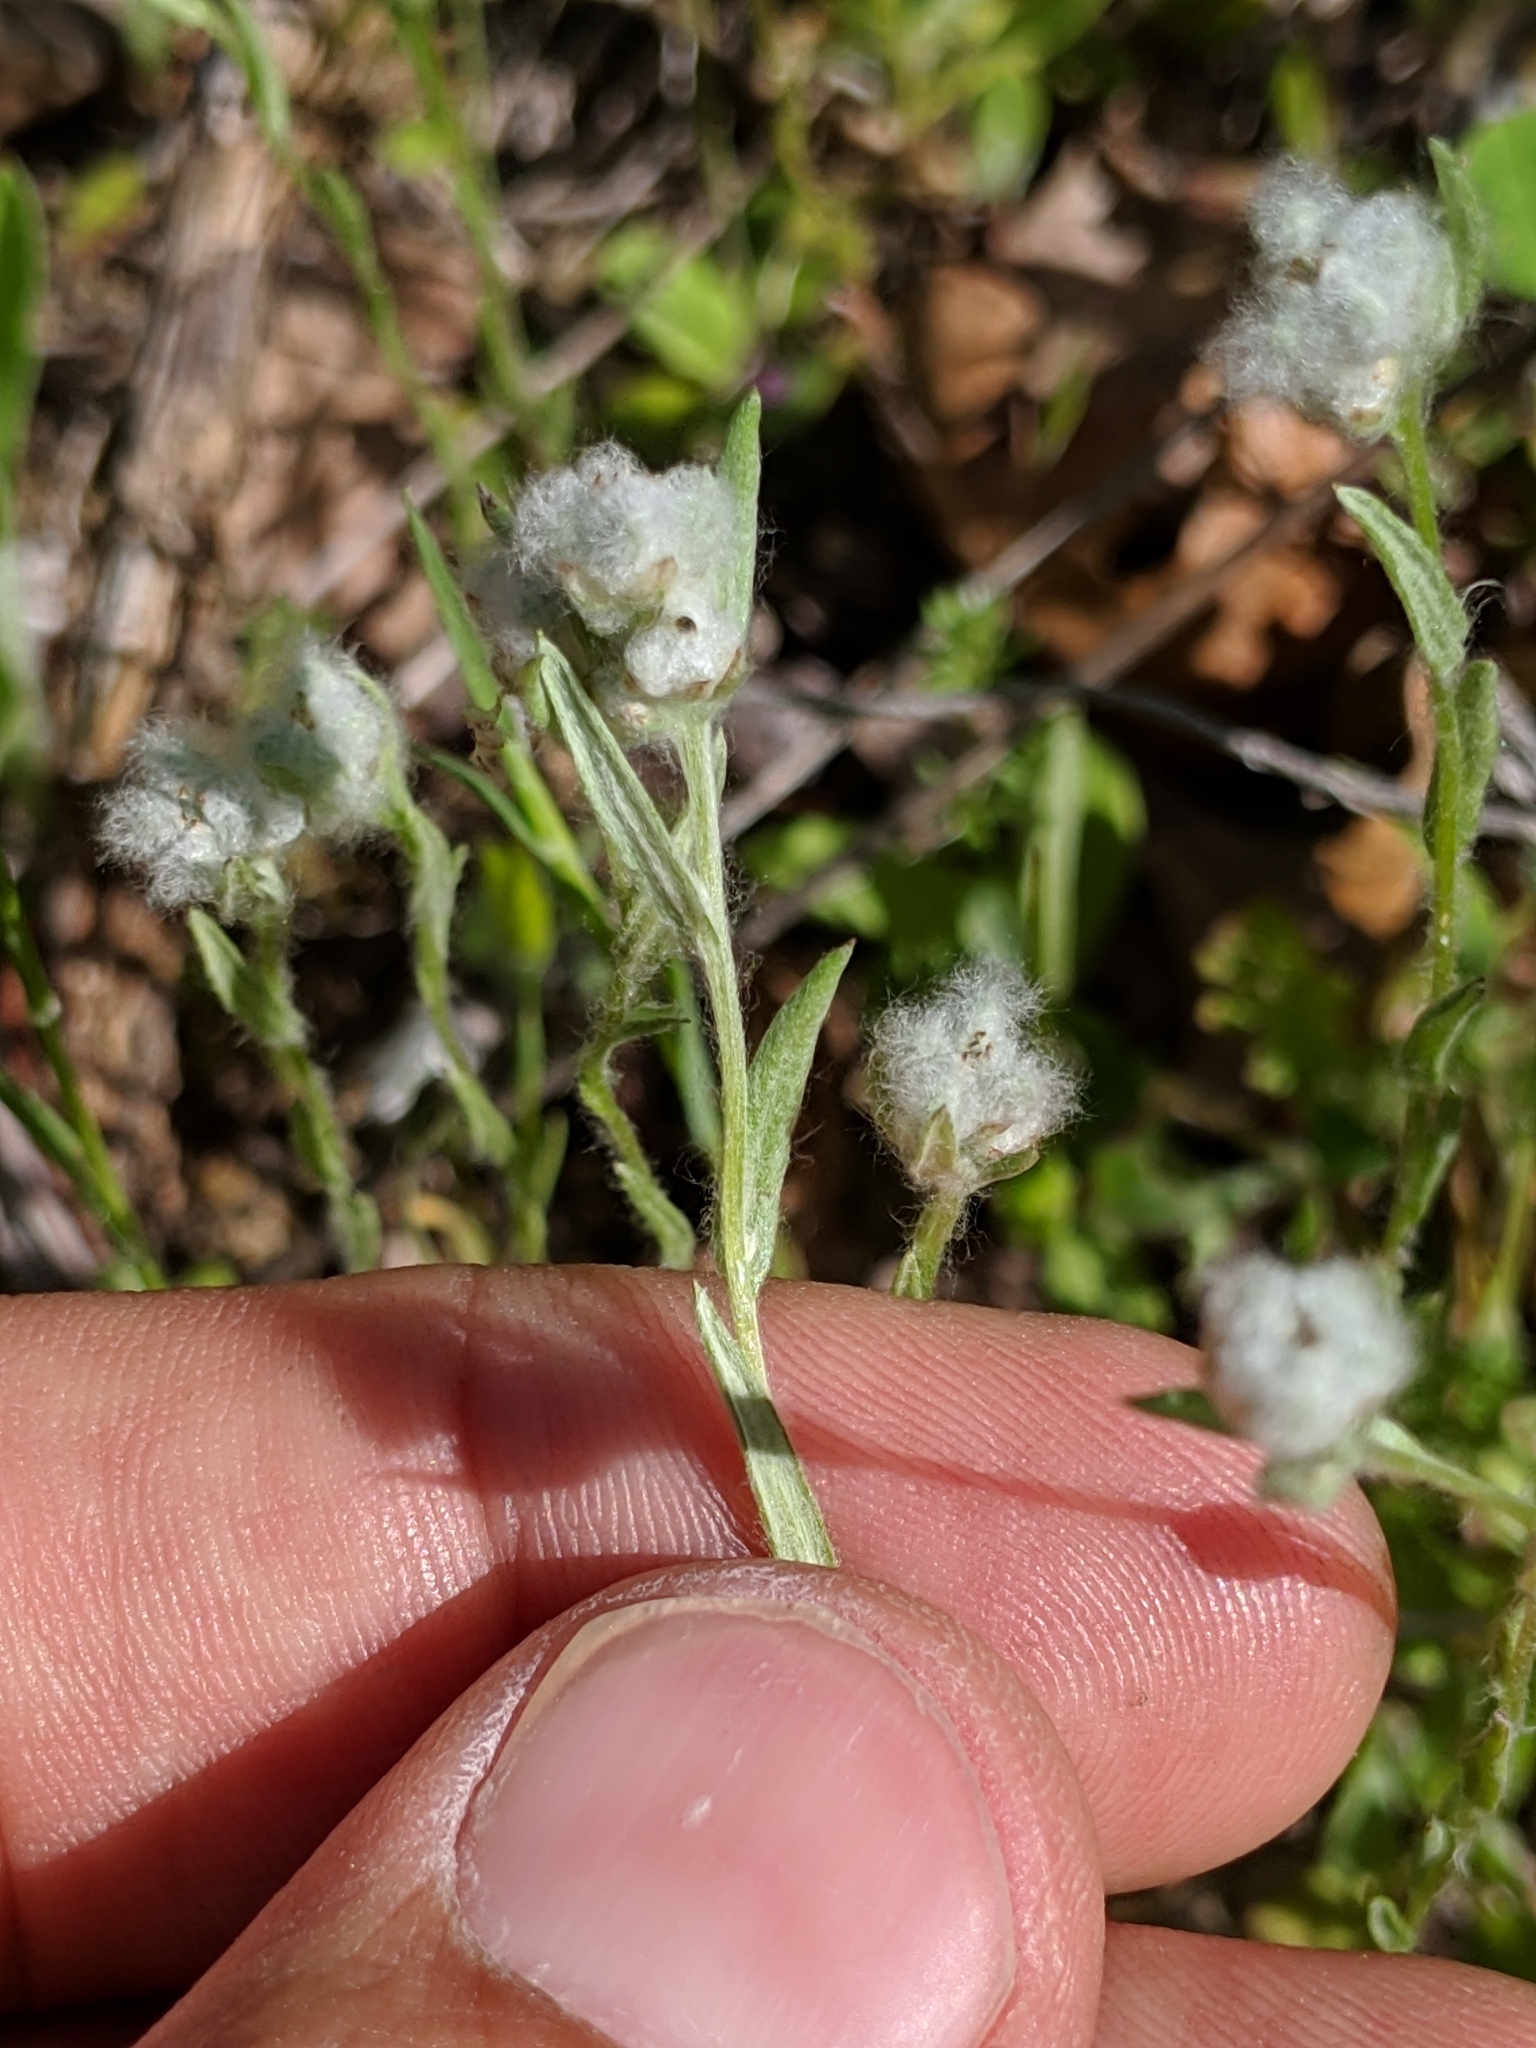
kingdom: Plantae
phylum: Tracheophyta
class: Magnoliopsida
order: Asterales
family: Asteraceae
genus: Bombycilaena
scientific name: Bombycilaena californica
